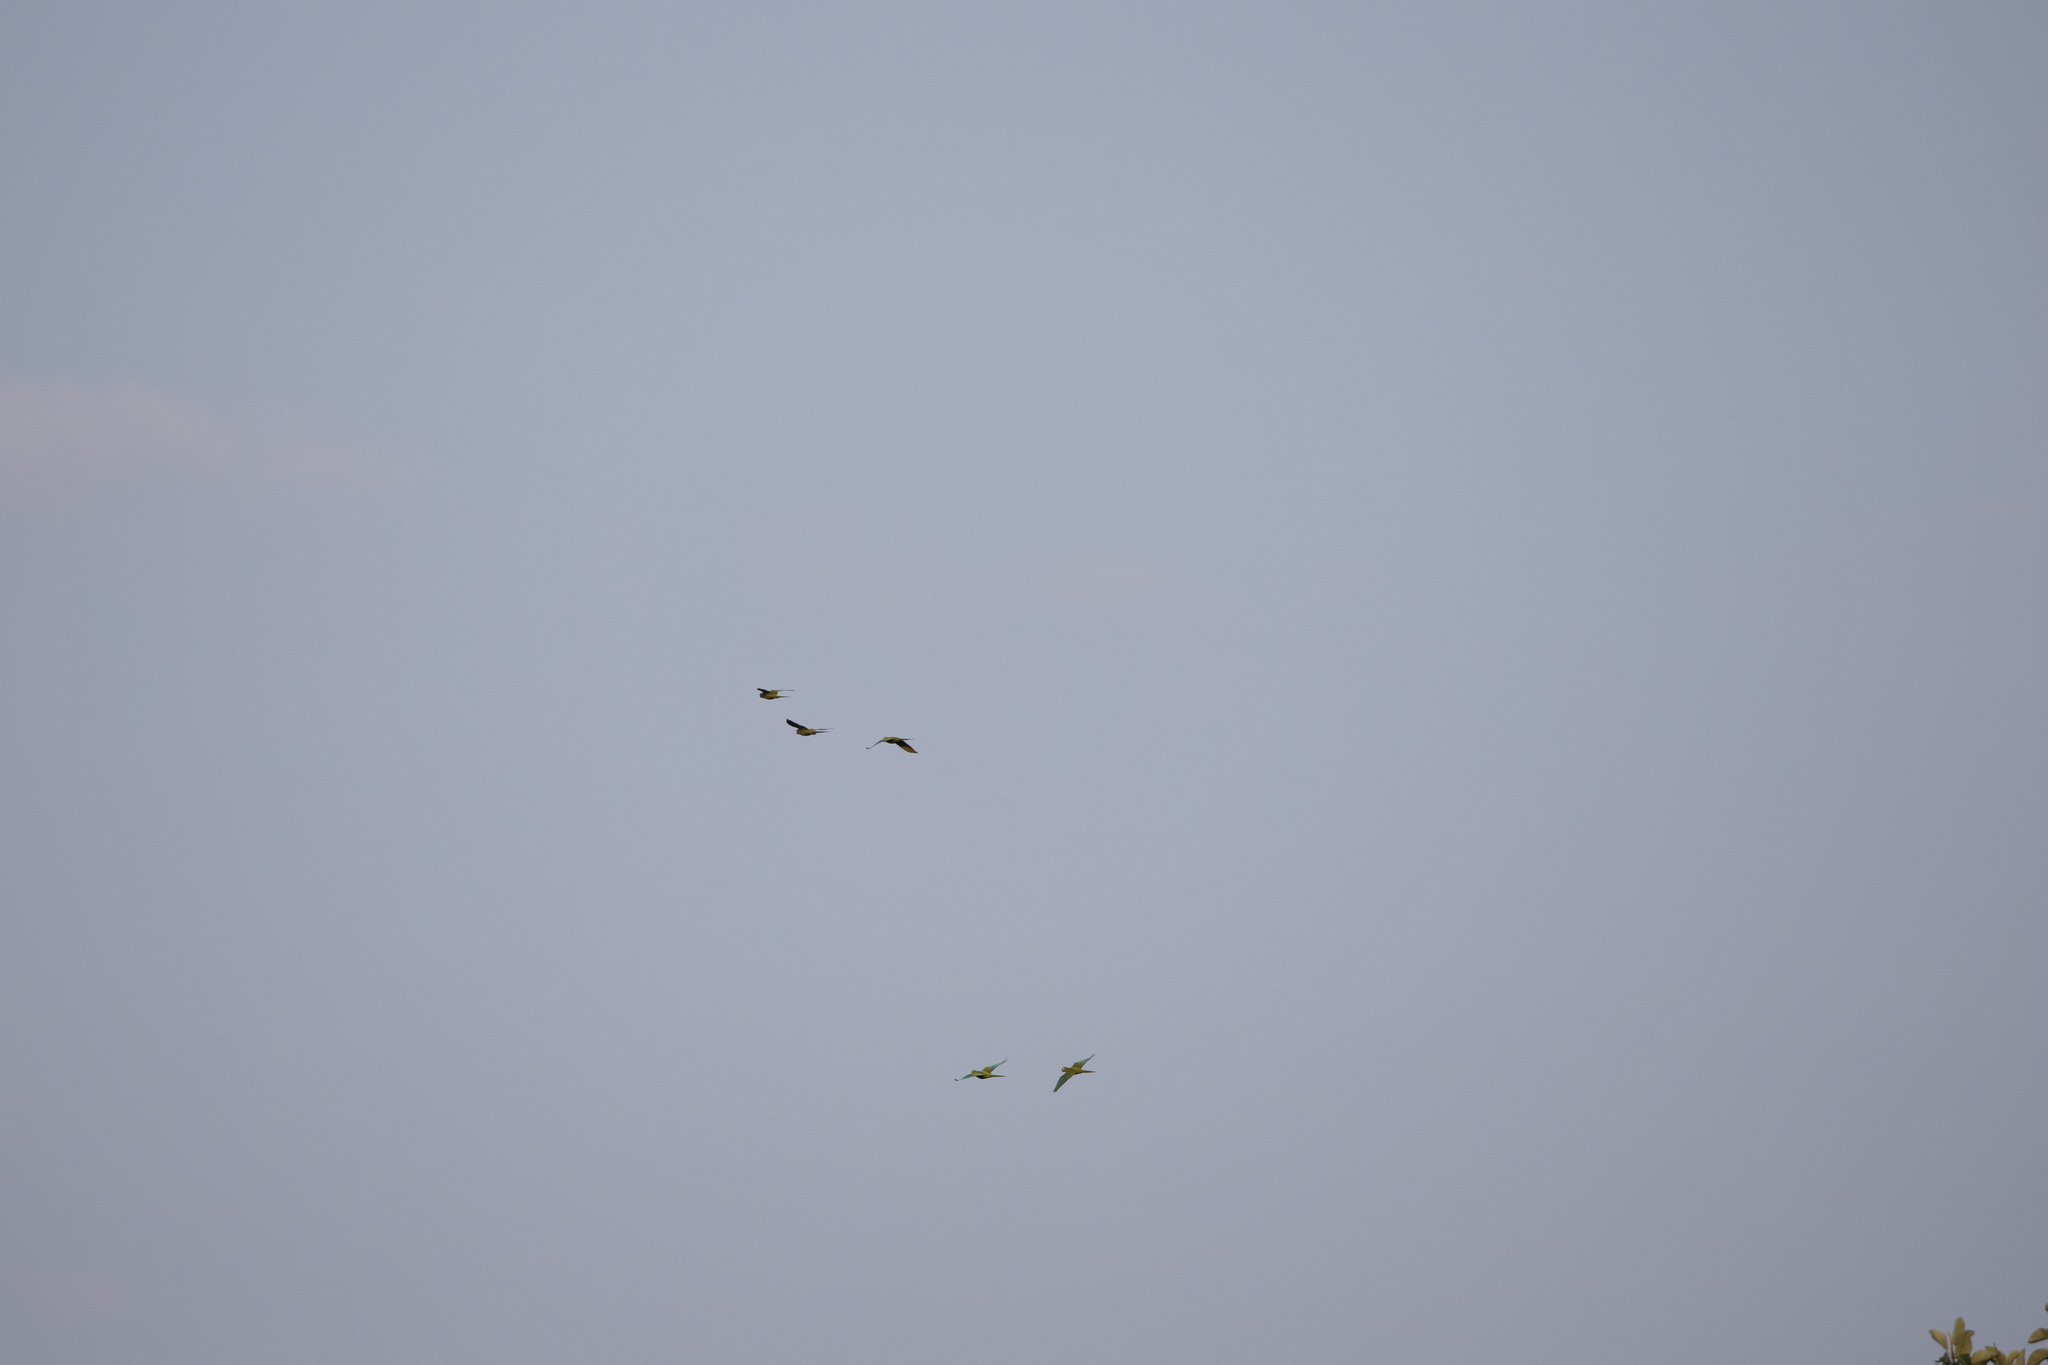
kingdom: Animalia
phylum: Chordata
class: Aves
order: Psittaciformes
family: Psittacidae
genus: Orthopsittaca
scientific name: Orthopsittaca manilata
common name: Red-bellied macaw
